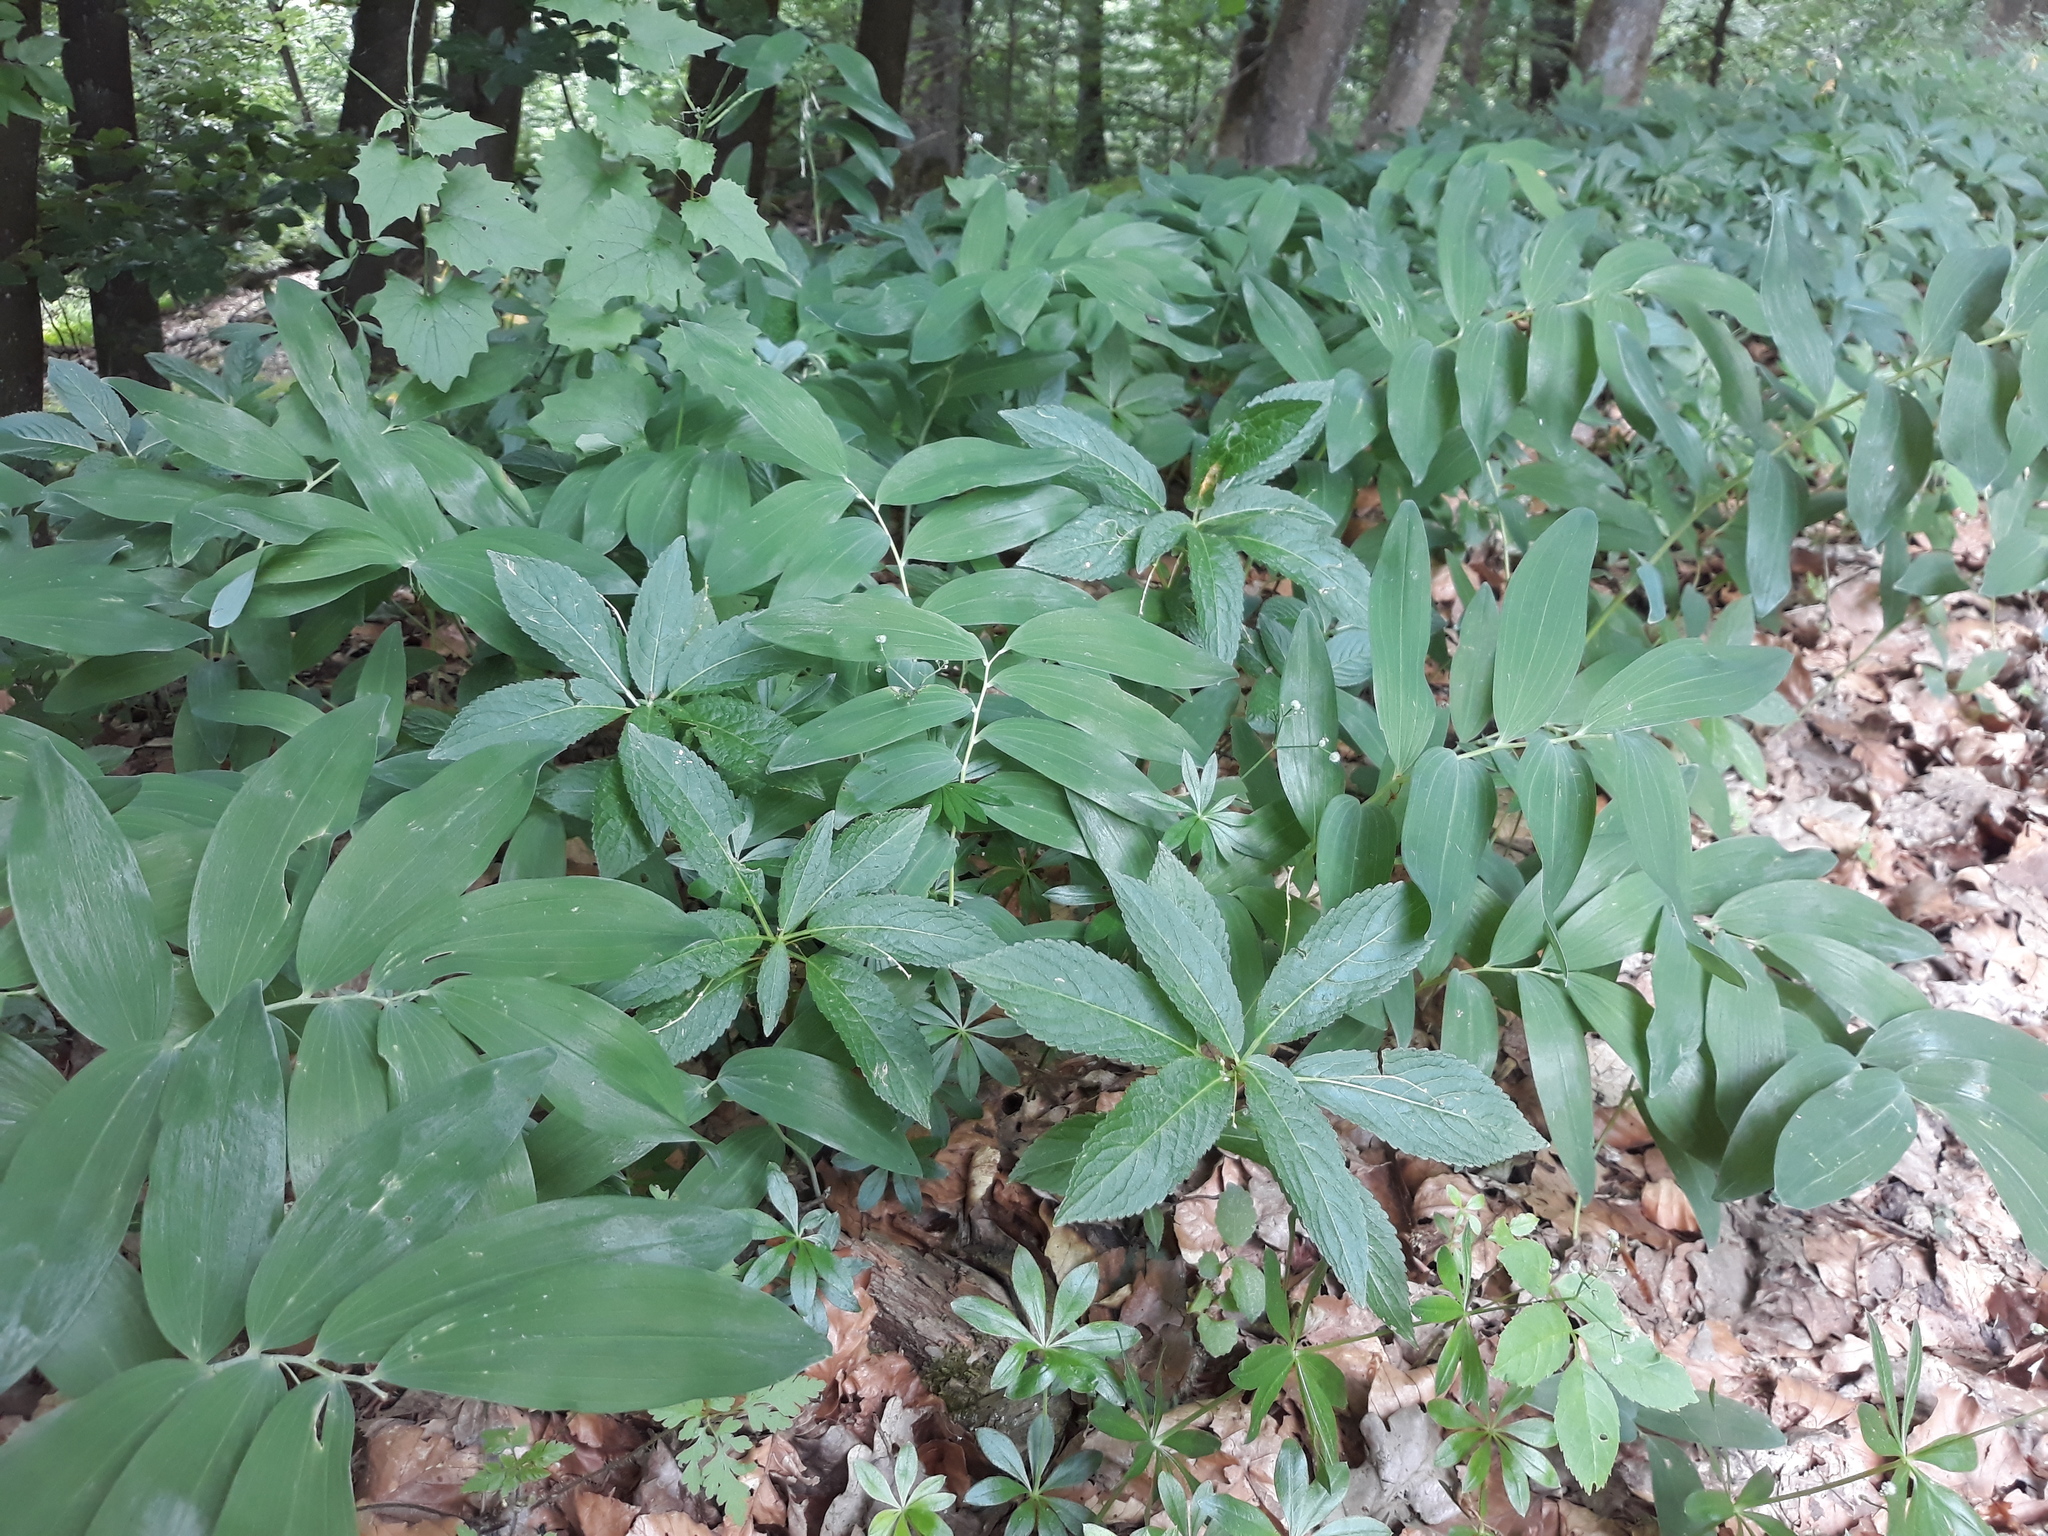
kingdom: Plantae
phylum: Tracheophyta
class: Liliopsida
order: Asparagales
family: Asparagaceae
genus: Polygonatum
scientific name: Polygonatum multiflorum
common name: Solomon's-seal
